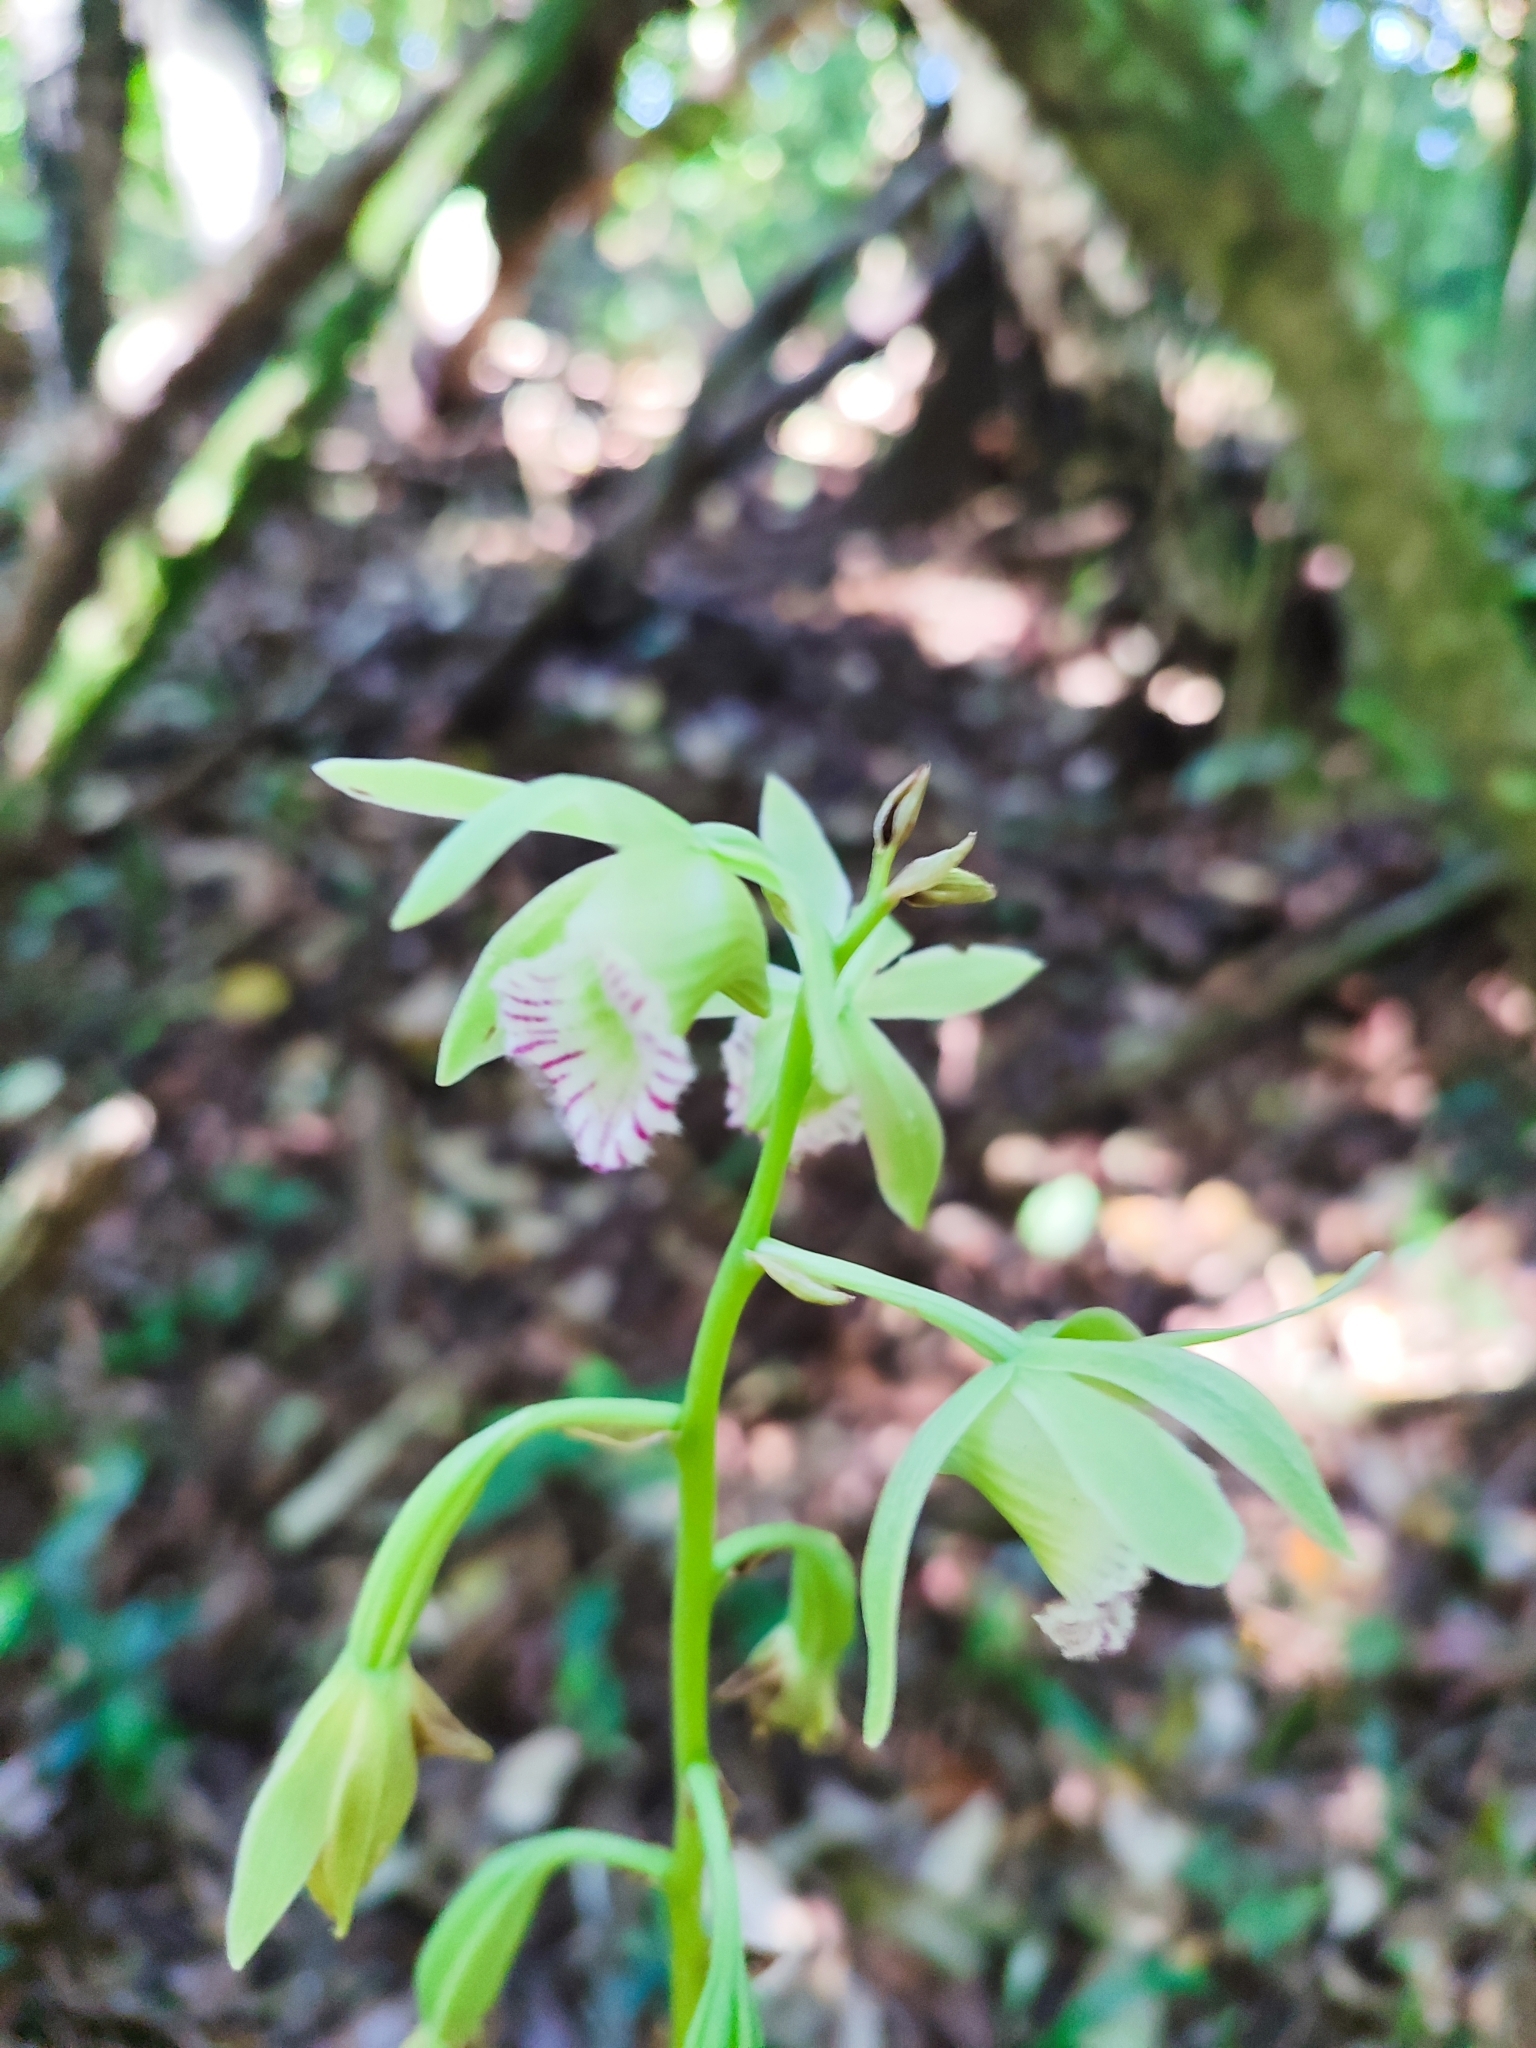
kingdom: Plantae
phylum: Tracheophyta
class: Liliopsida
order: Asparagales
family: Orchidaceae
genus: Galeandra
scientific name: Galeandra beyrichii
